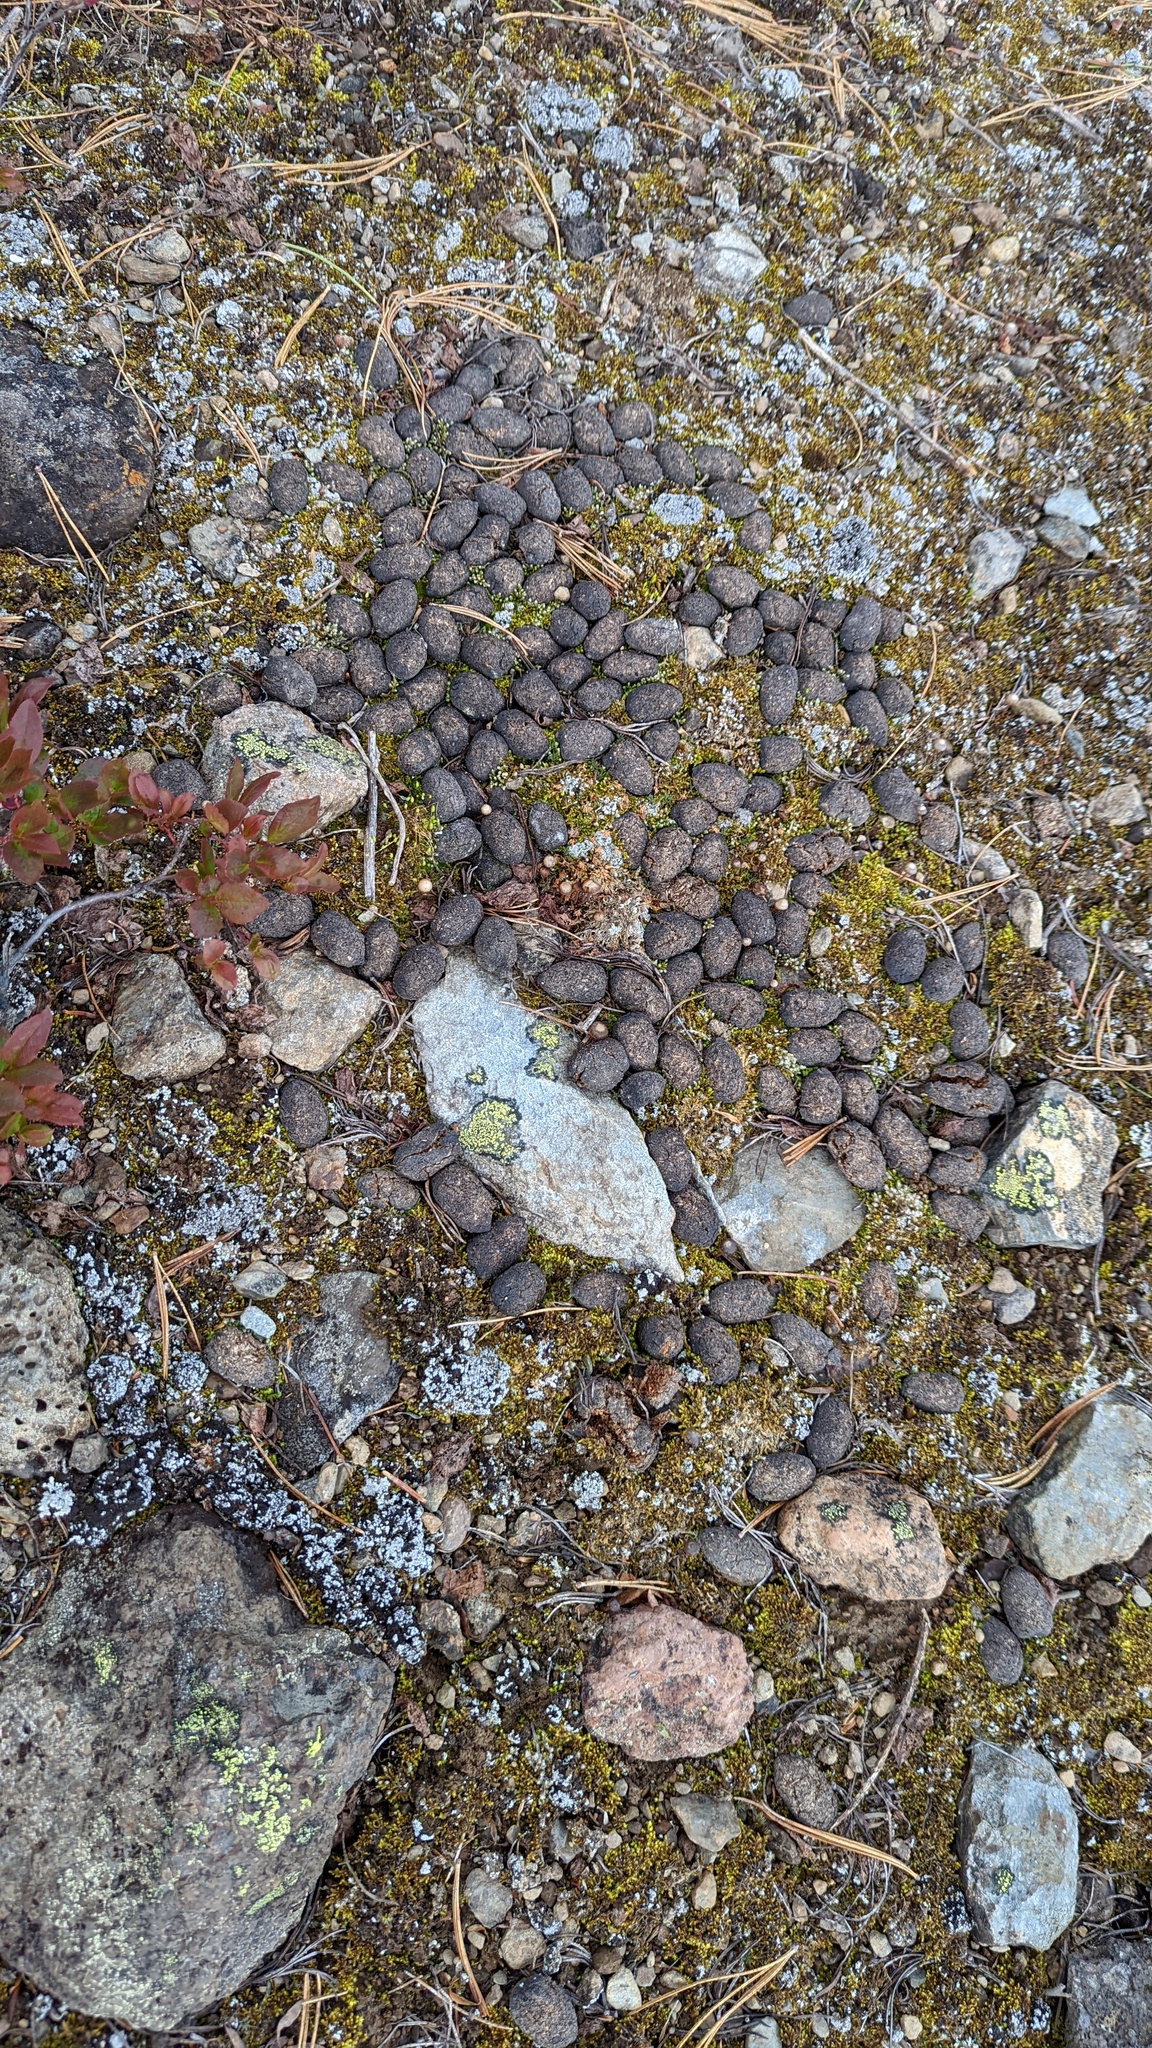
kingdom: Animalia
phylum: Chordata
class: Mammalia
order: Artiodactyla
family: Cervidae
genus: Alces
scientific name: Alces alces
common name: Moose
